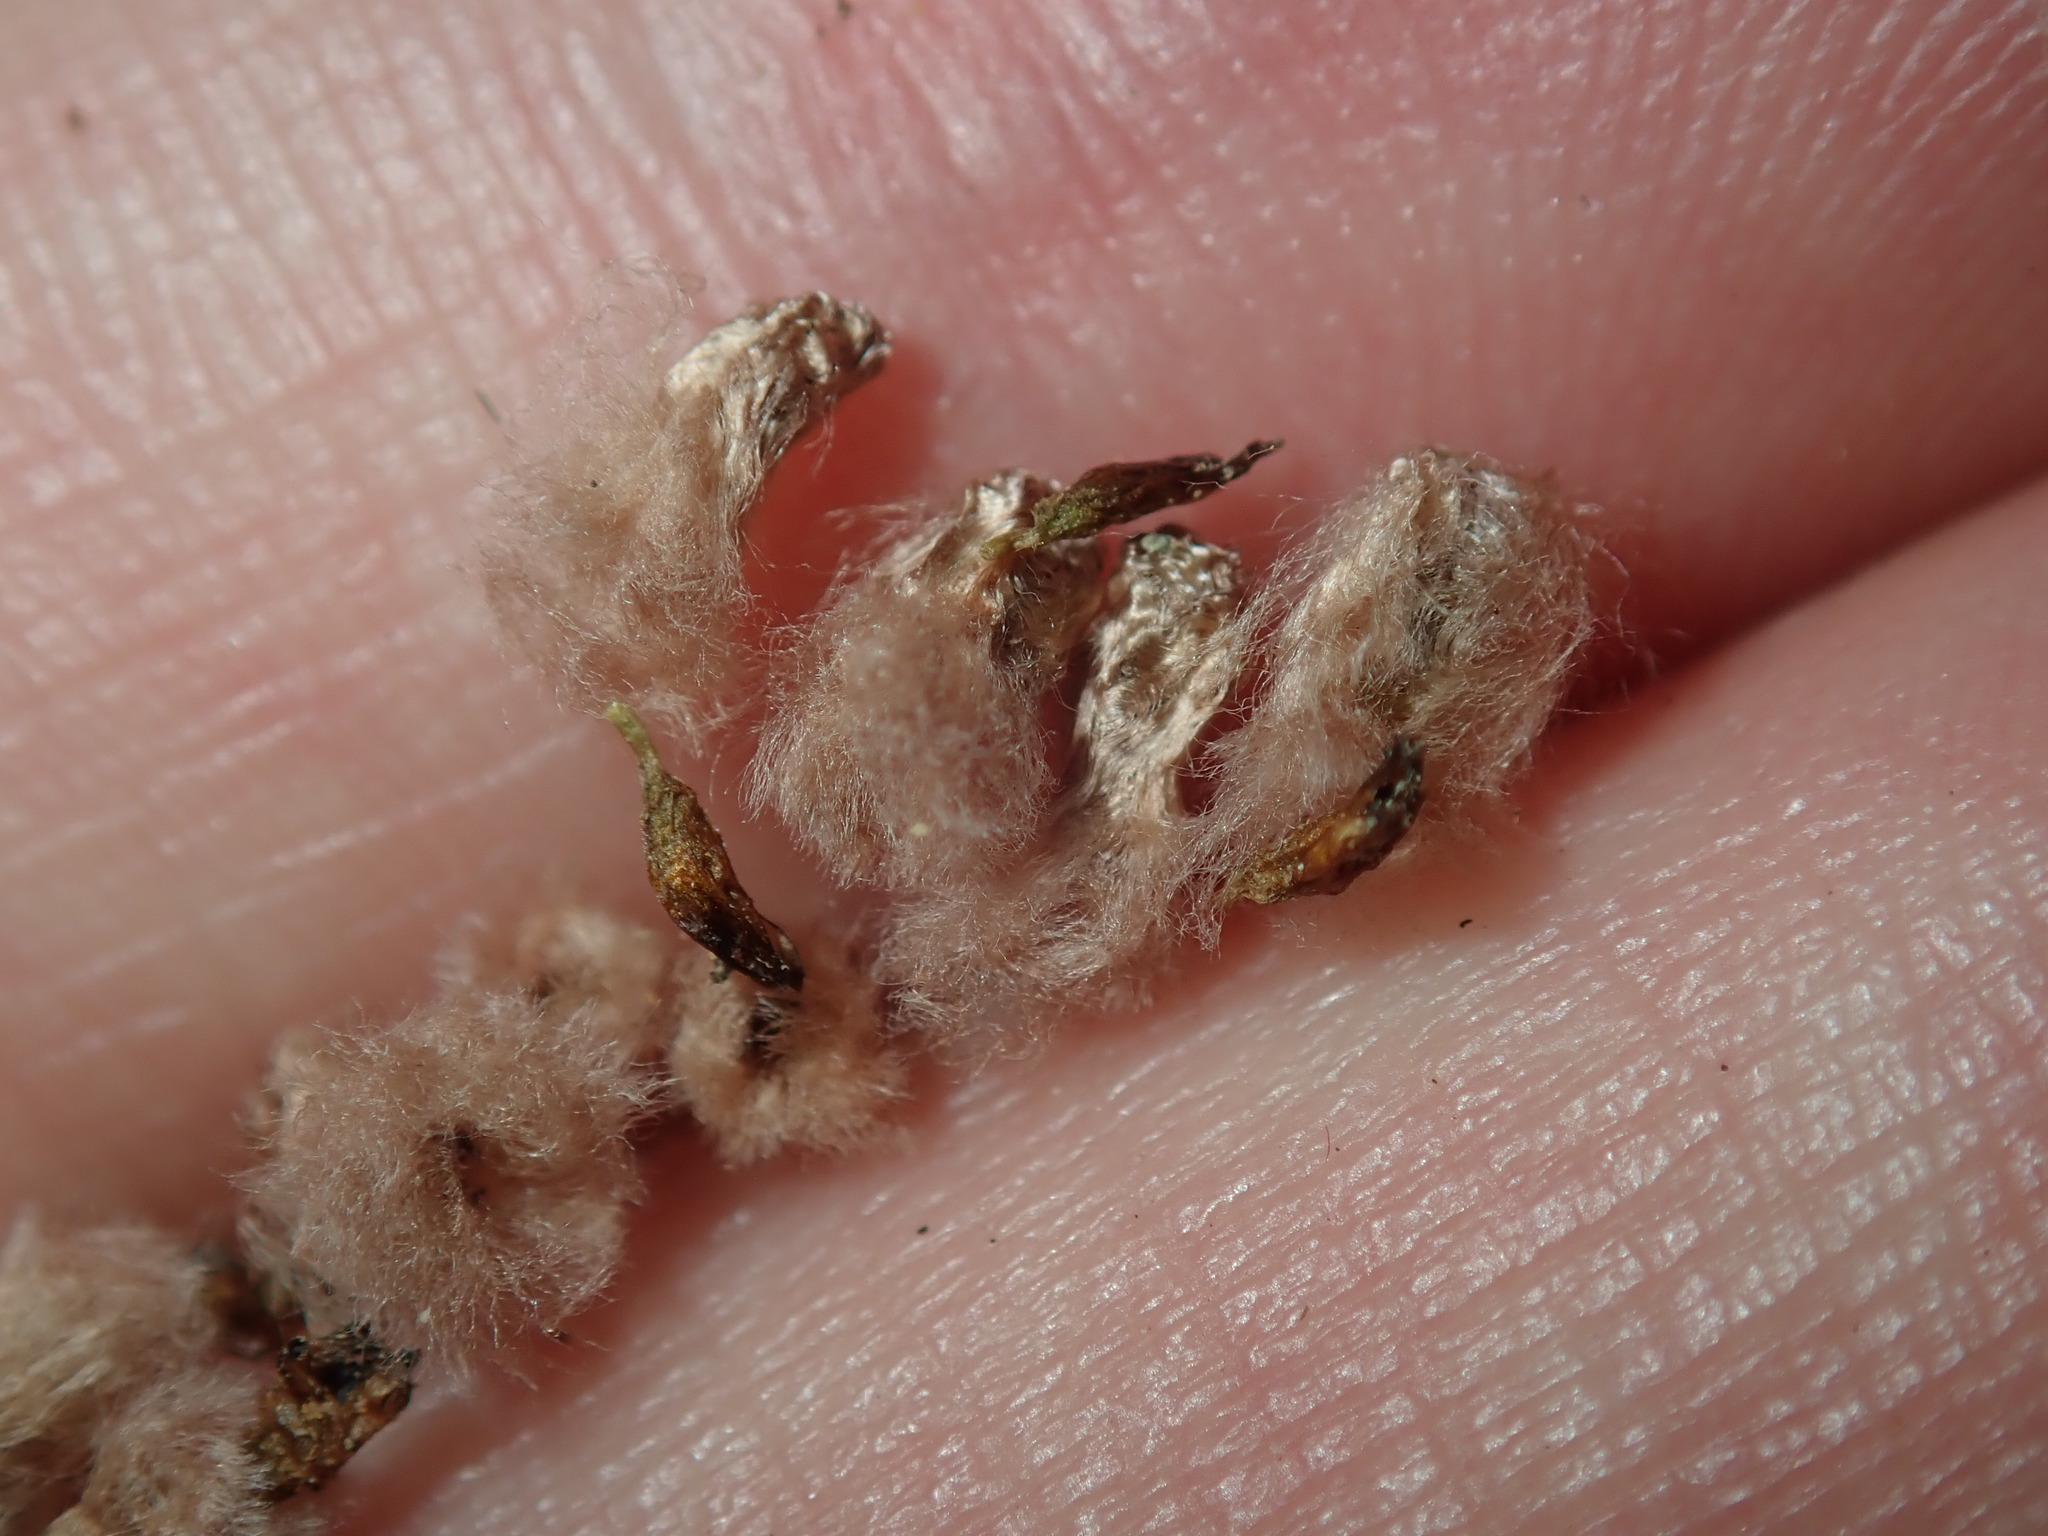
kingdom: Plantae
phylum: Tracheophyta
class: Magnoliopsida
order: Asterales
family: Asteraceae
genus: Arctotheca
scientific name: Arctotheca calendula
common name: Capeweed
